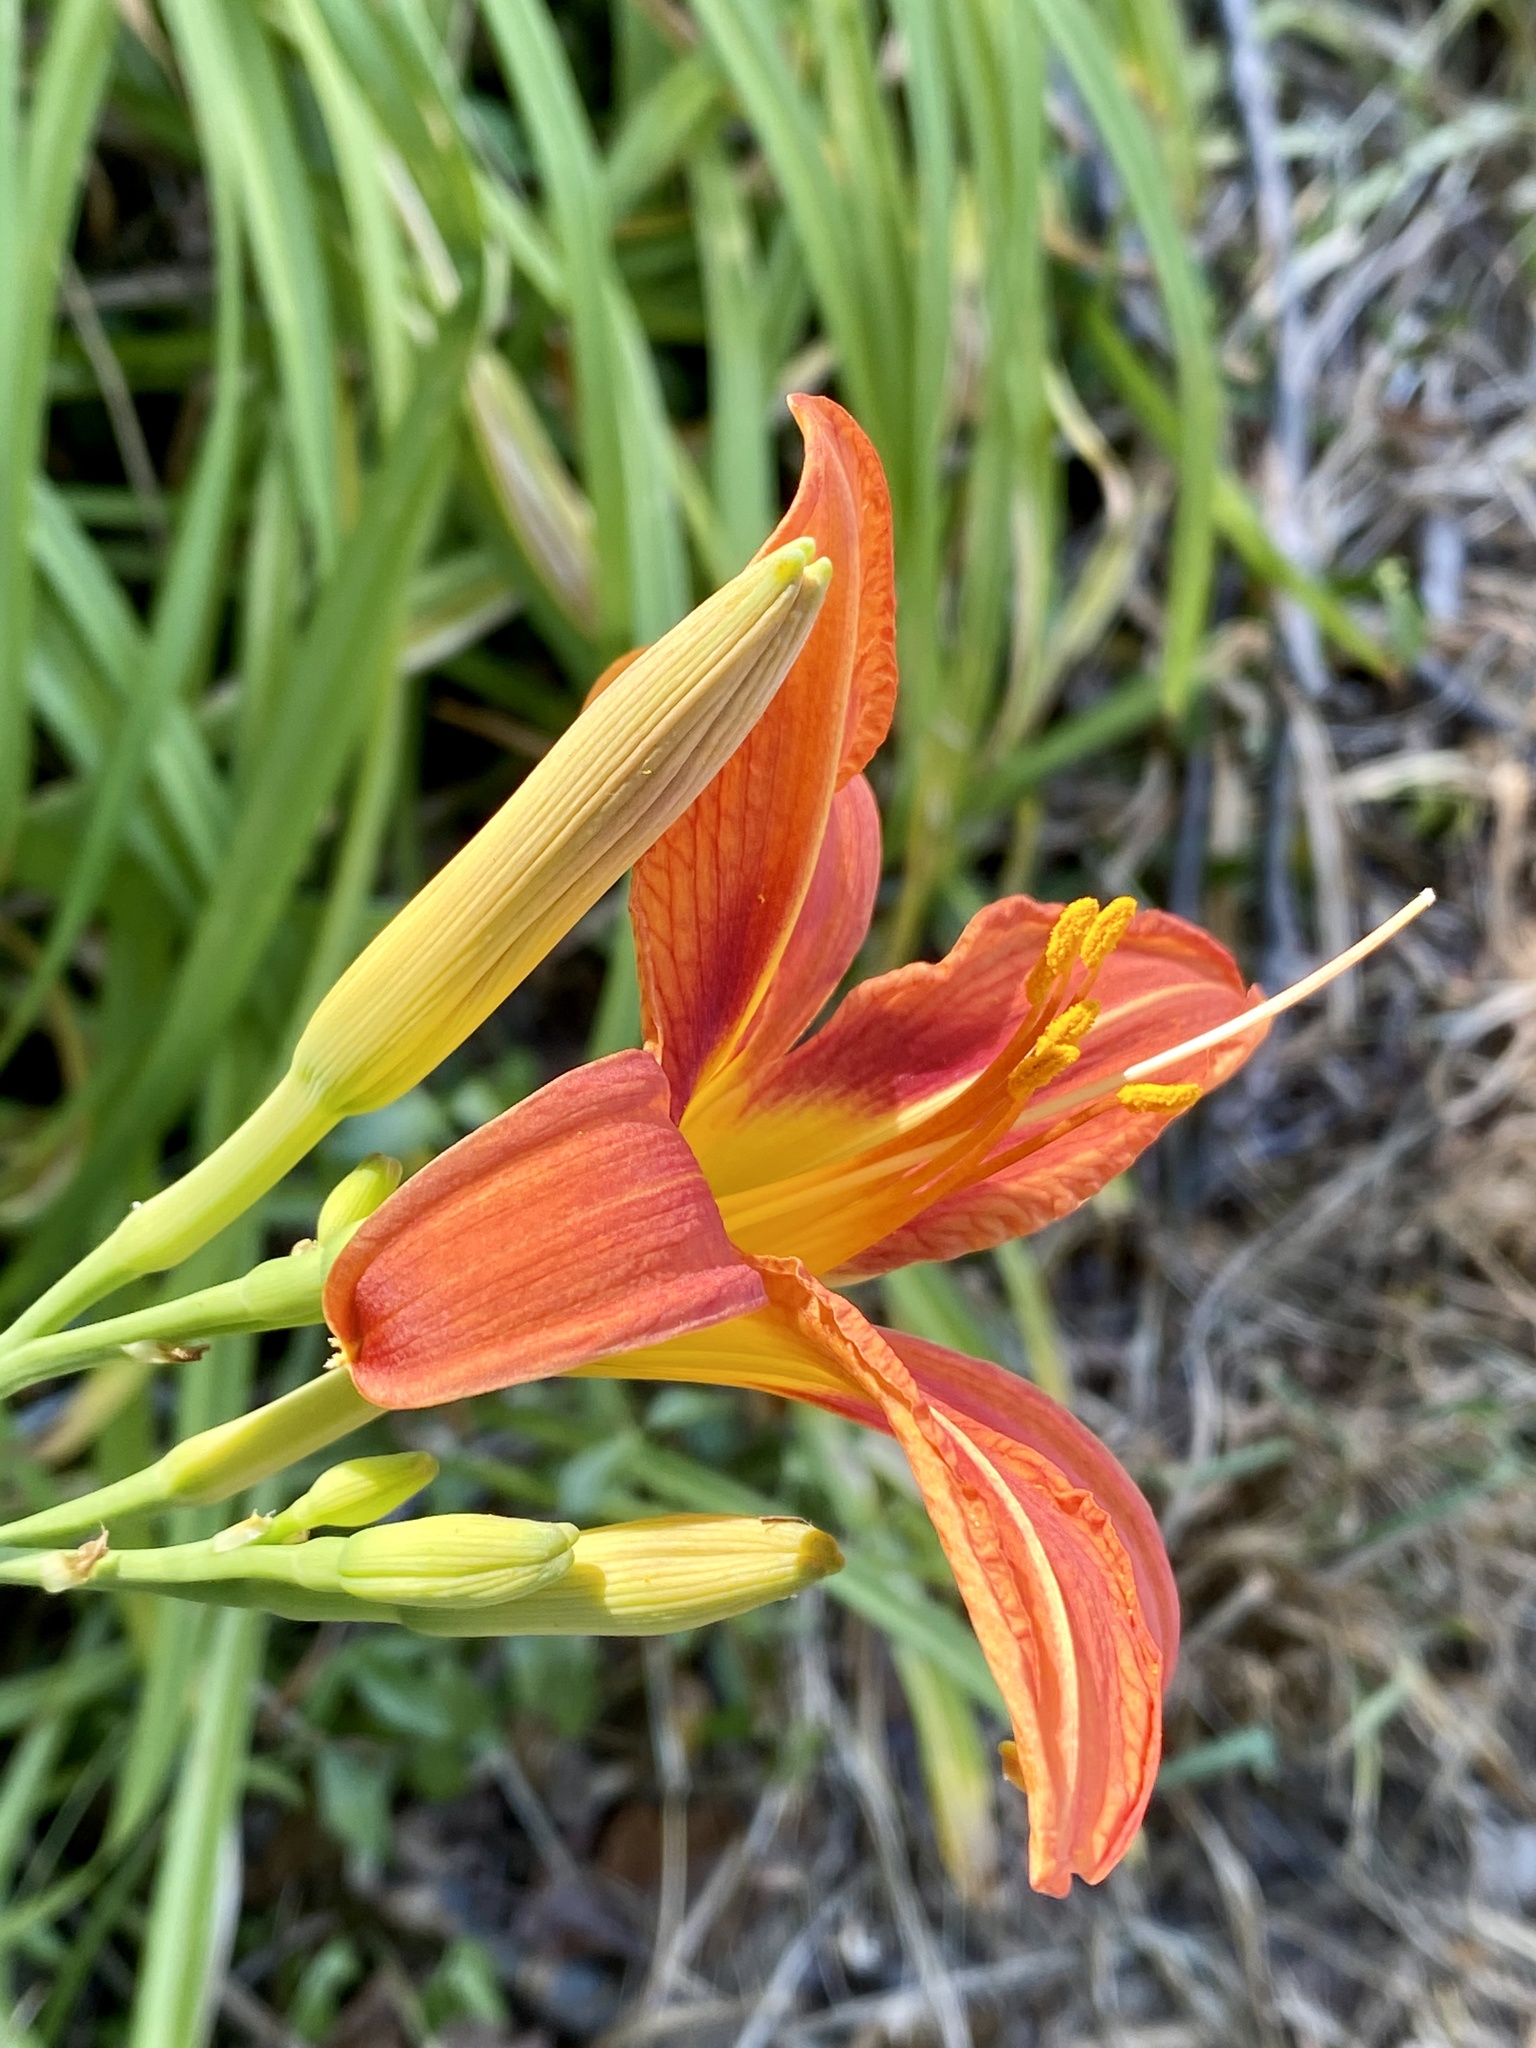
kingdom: Plantae
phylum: Tracheophyta
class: Liliopsida
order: Asparagales
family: Asphodelaceae
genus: Hemerocallis
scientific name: Hemerocallis fulva
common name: Orange day-lily
